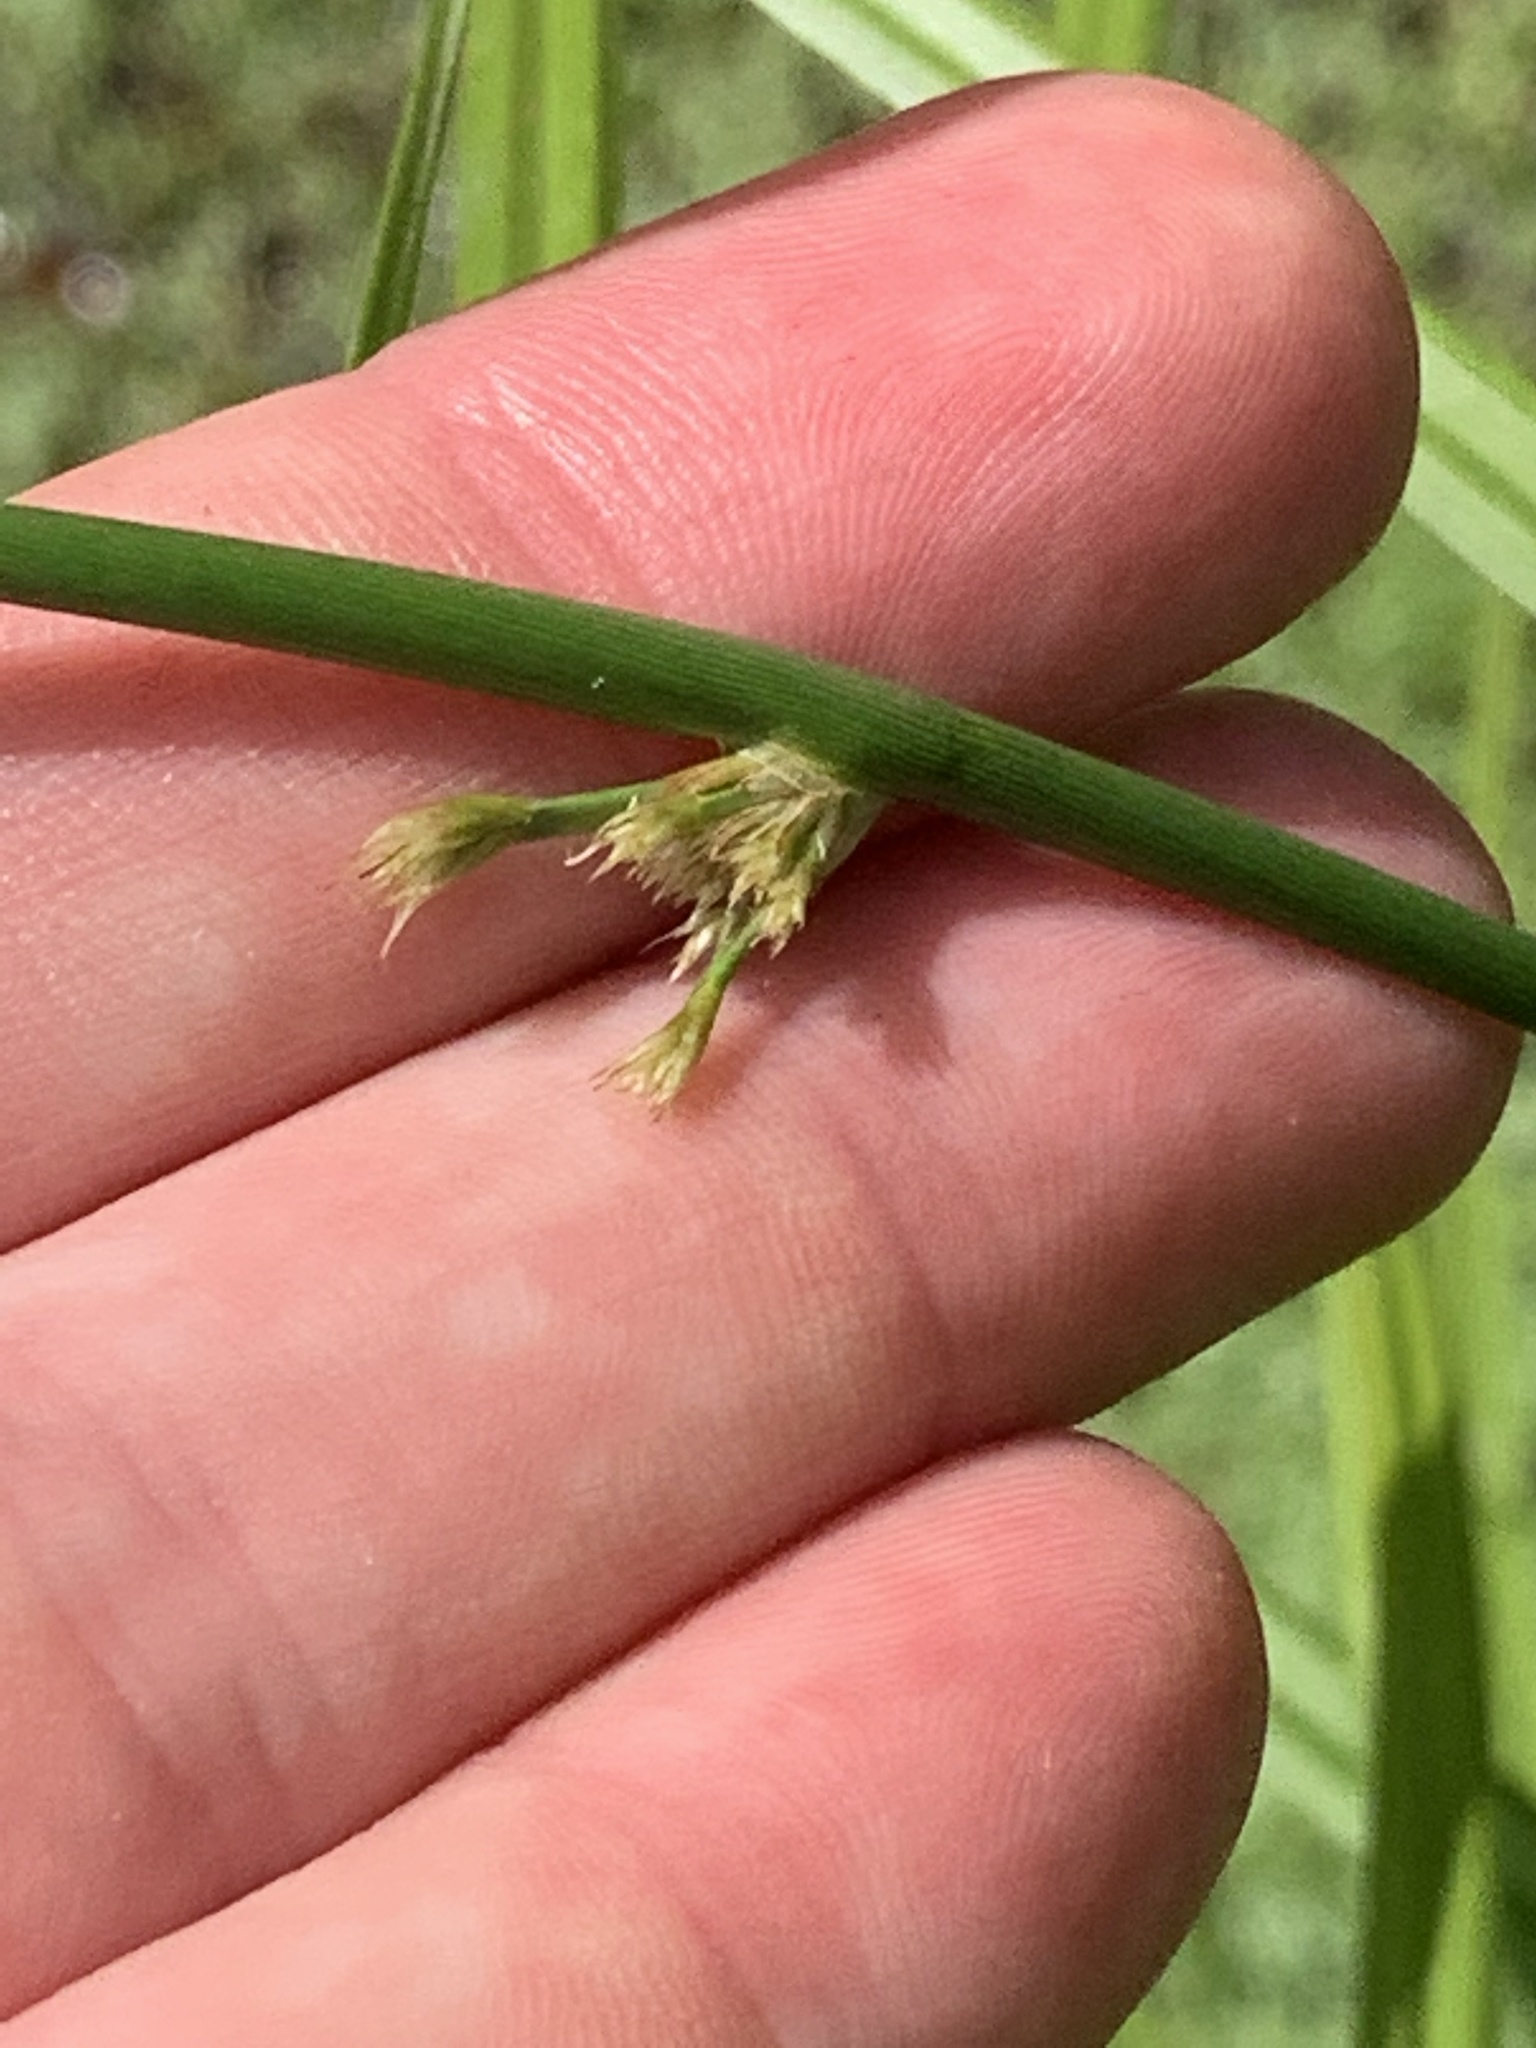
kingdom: Plantae
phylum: Tracheophyta
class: Liliopsida
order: Poales
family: Juncaceae
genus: Juncus
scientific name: Juncus effusus
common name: Soft rush
